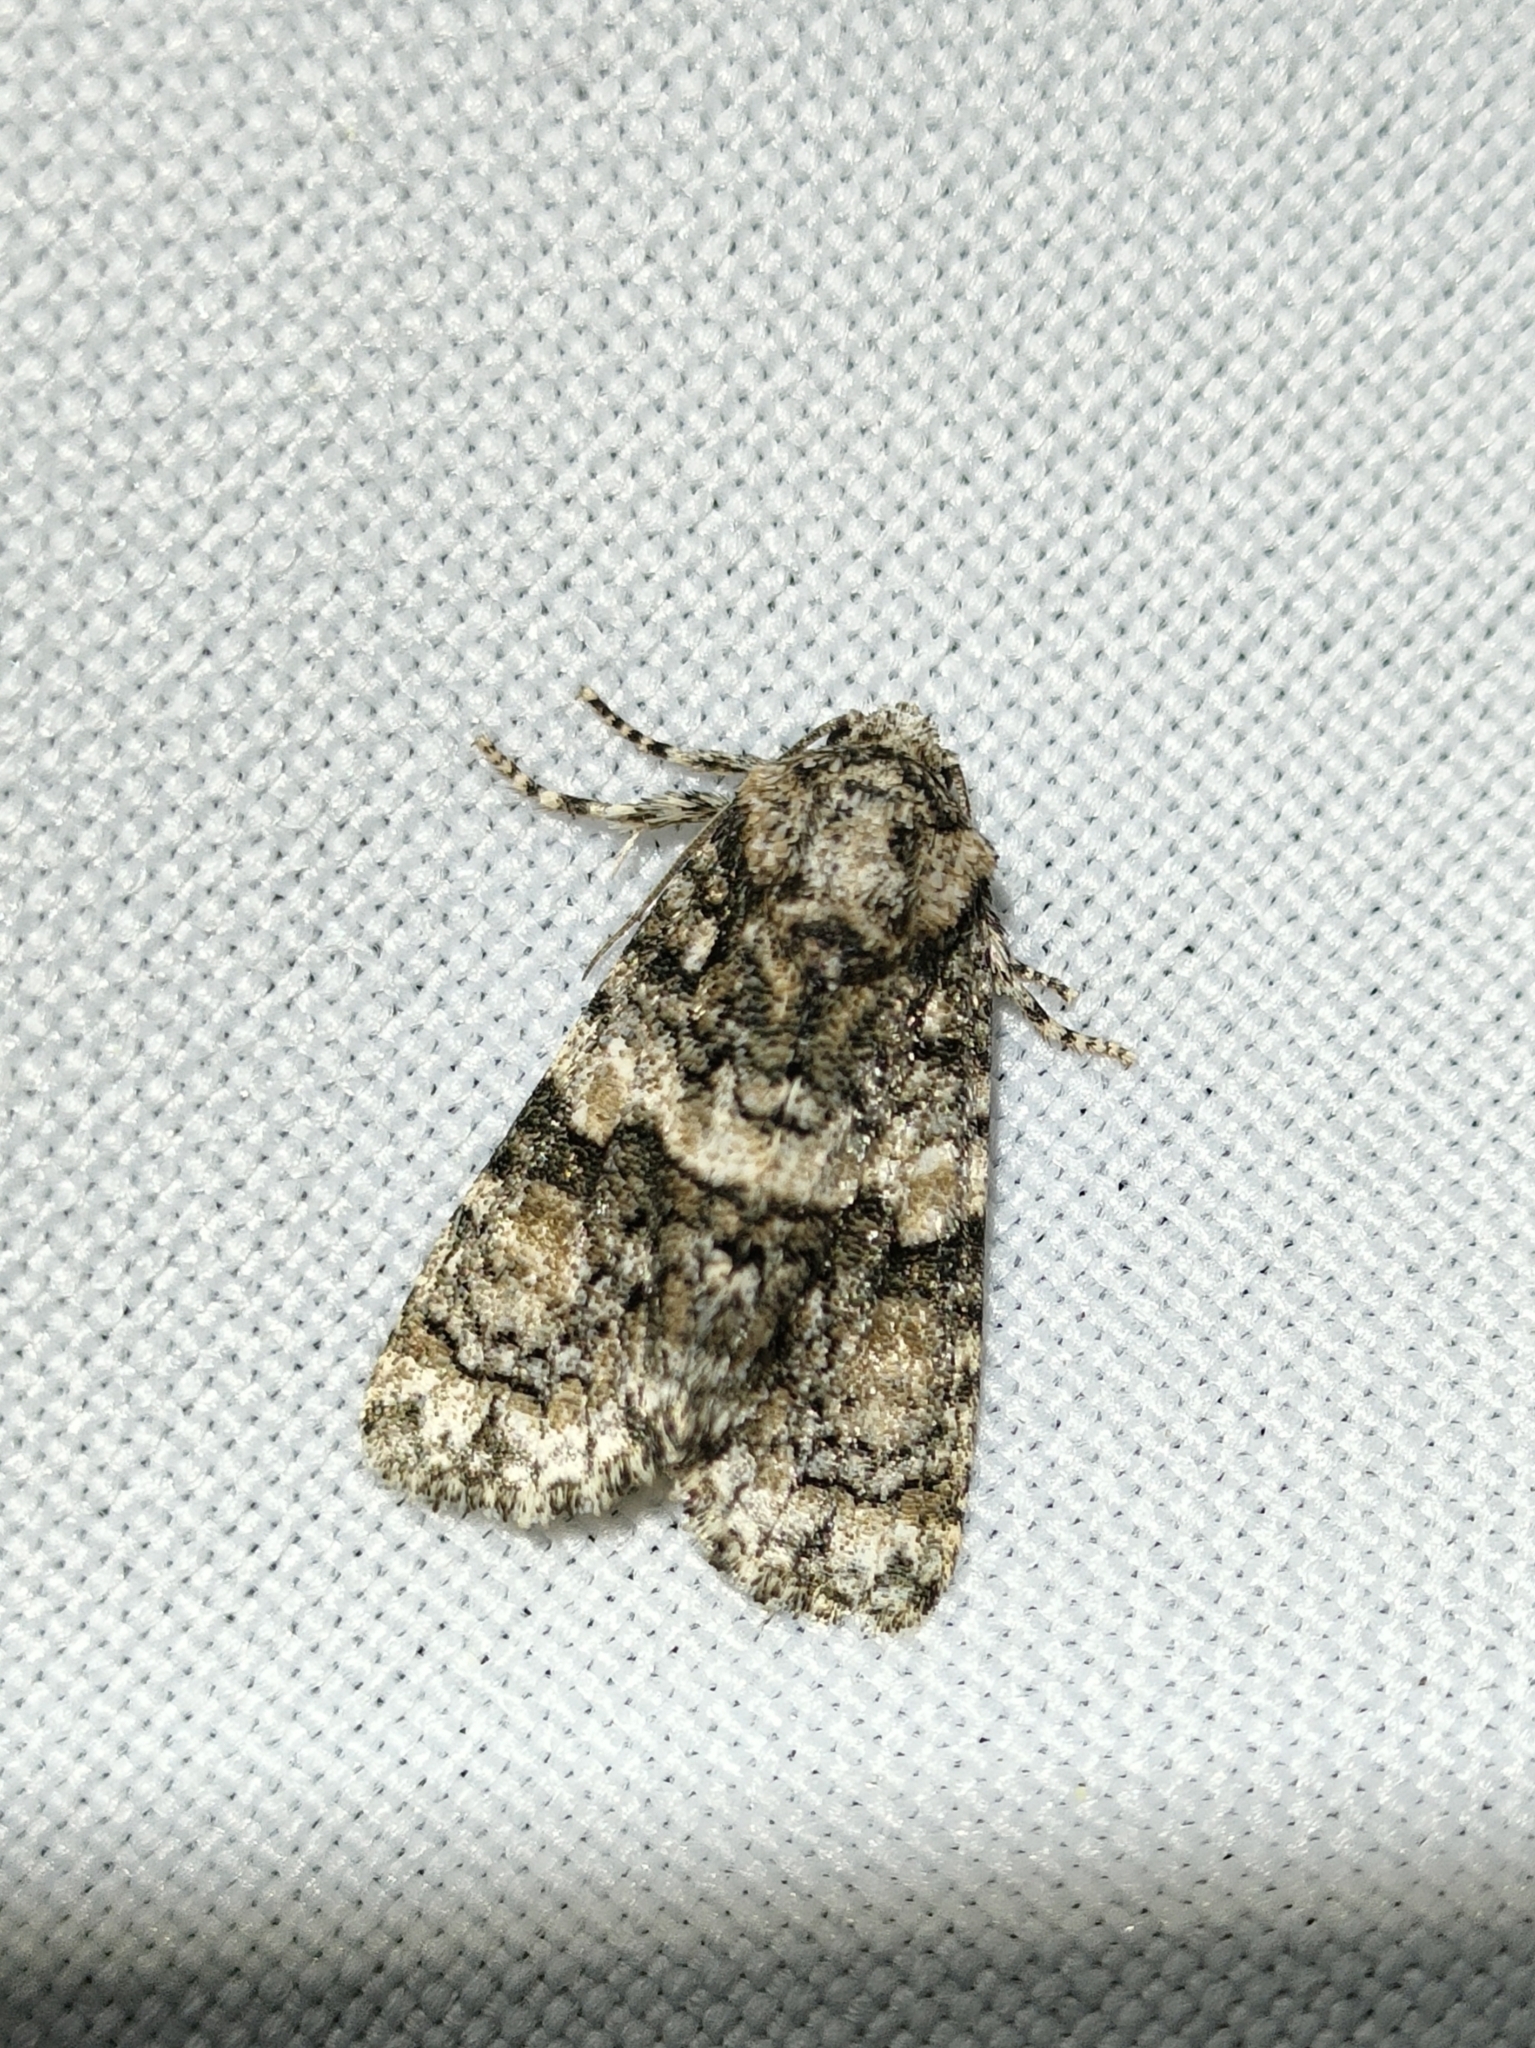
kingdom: Animalia
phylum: Arthropoda
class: Insecta
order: Lepidoptera
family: Noctuidae
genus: Craniophora
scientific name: Craniophora pontica
